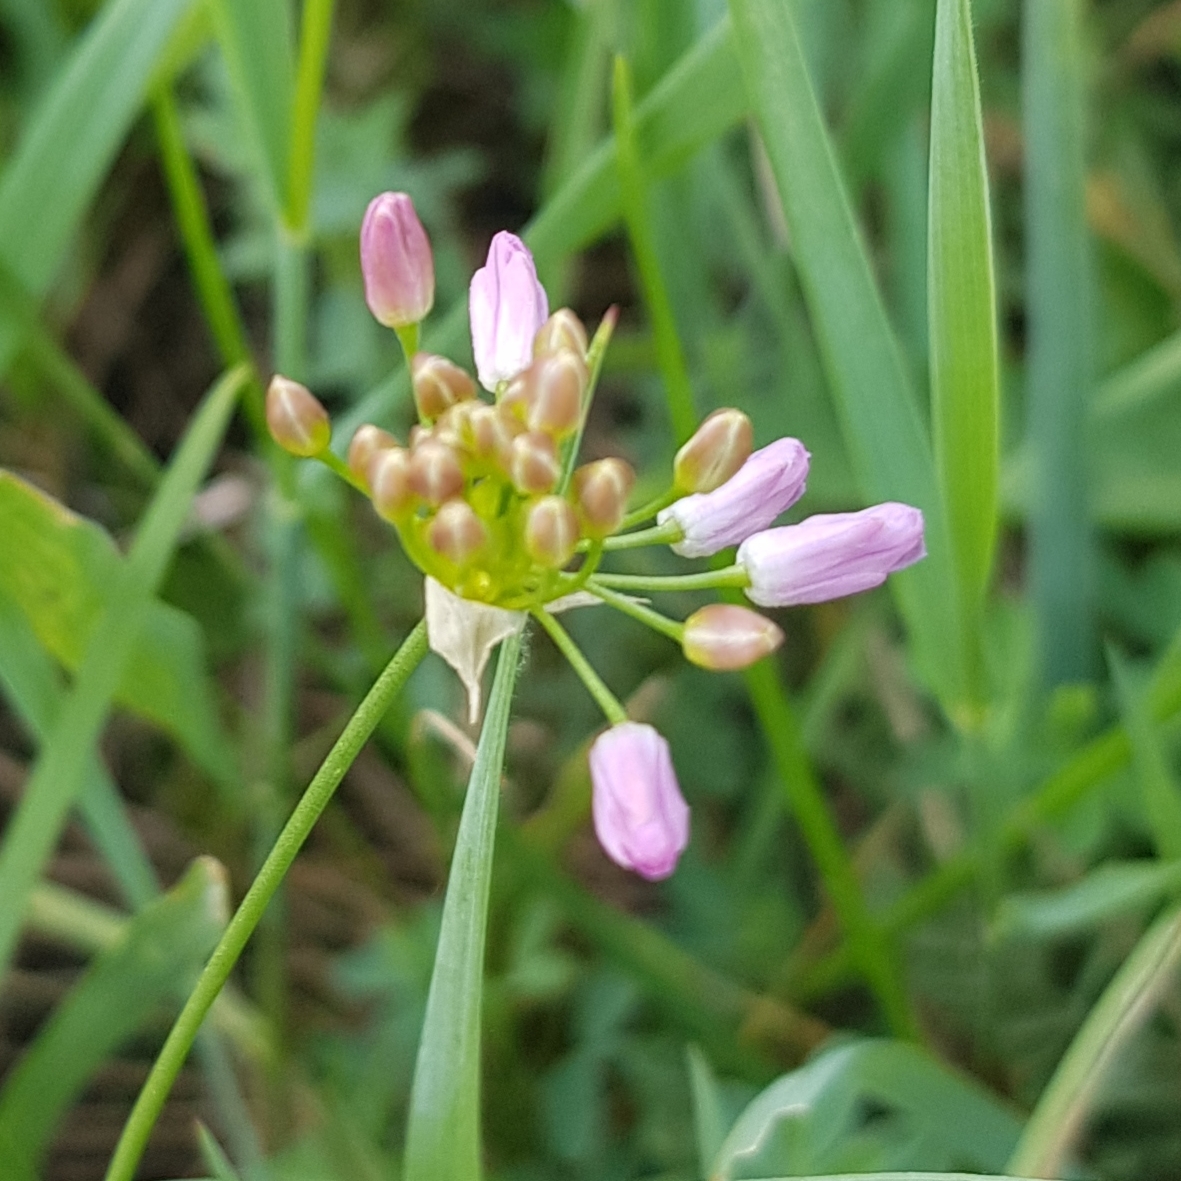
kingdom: Plantae
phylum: Tracheophyta
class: Liliopsida
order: Asparagales
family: Amaryllidaceae
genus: Allium
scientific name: Allium anisopodium
